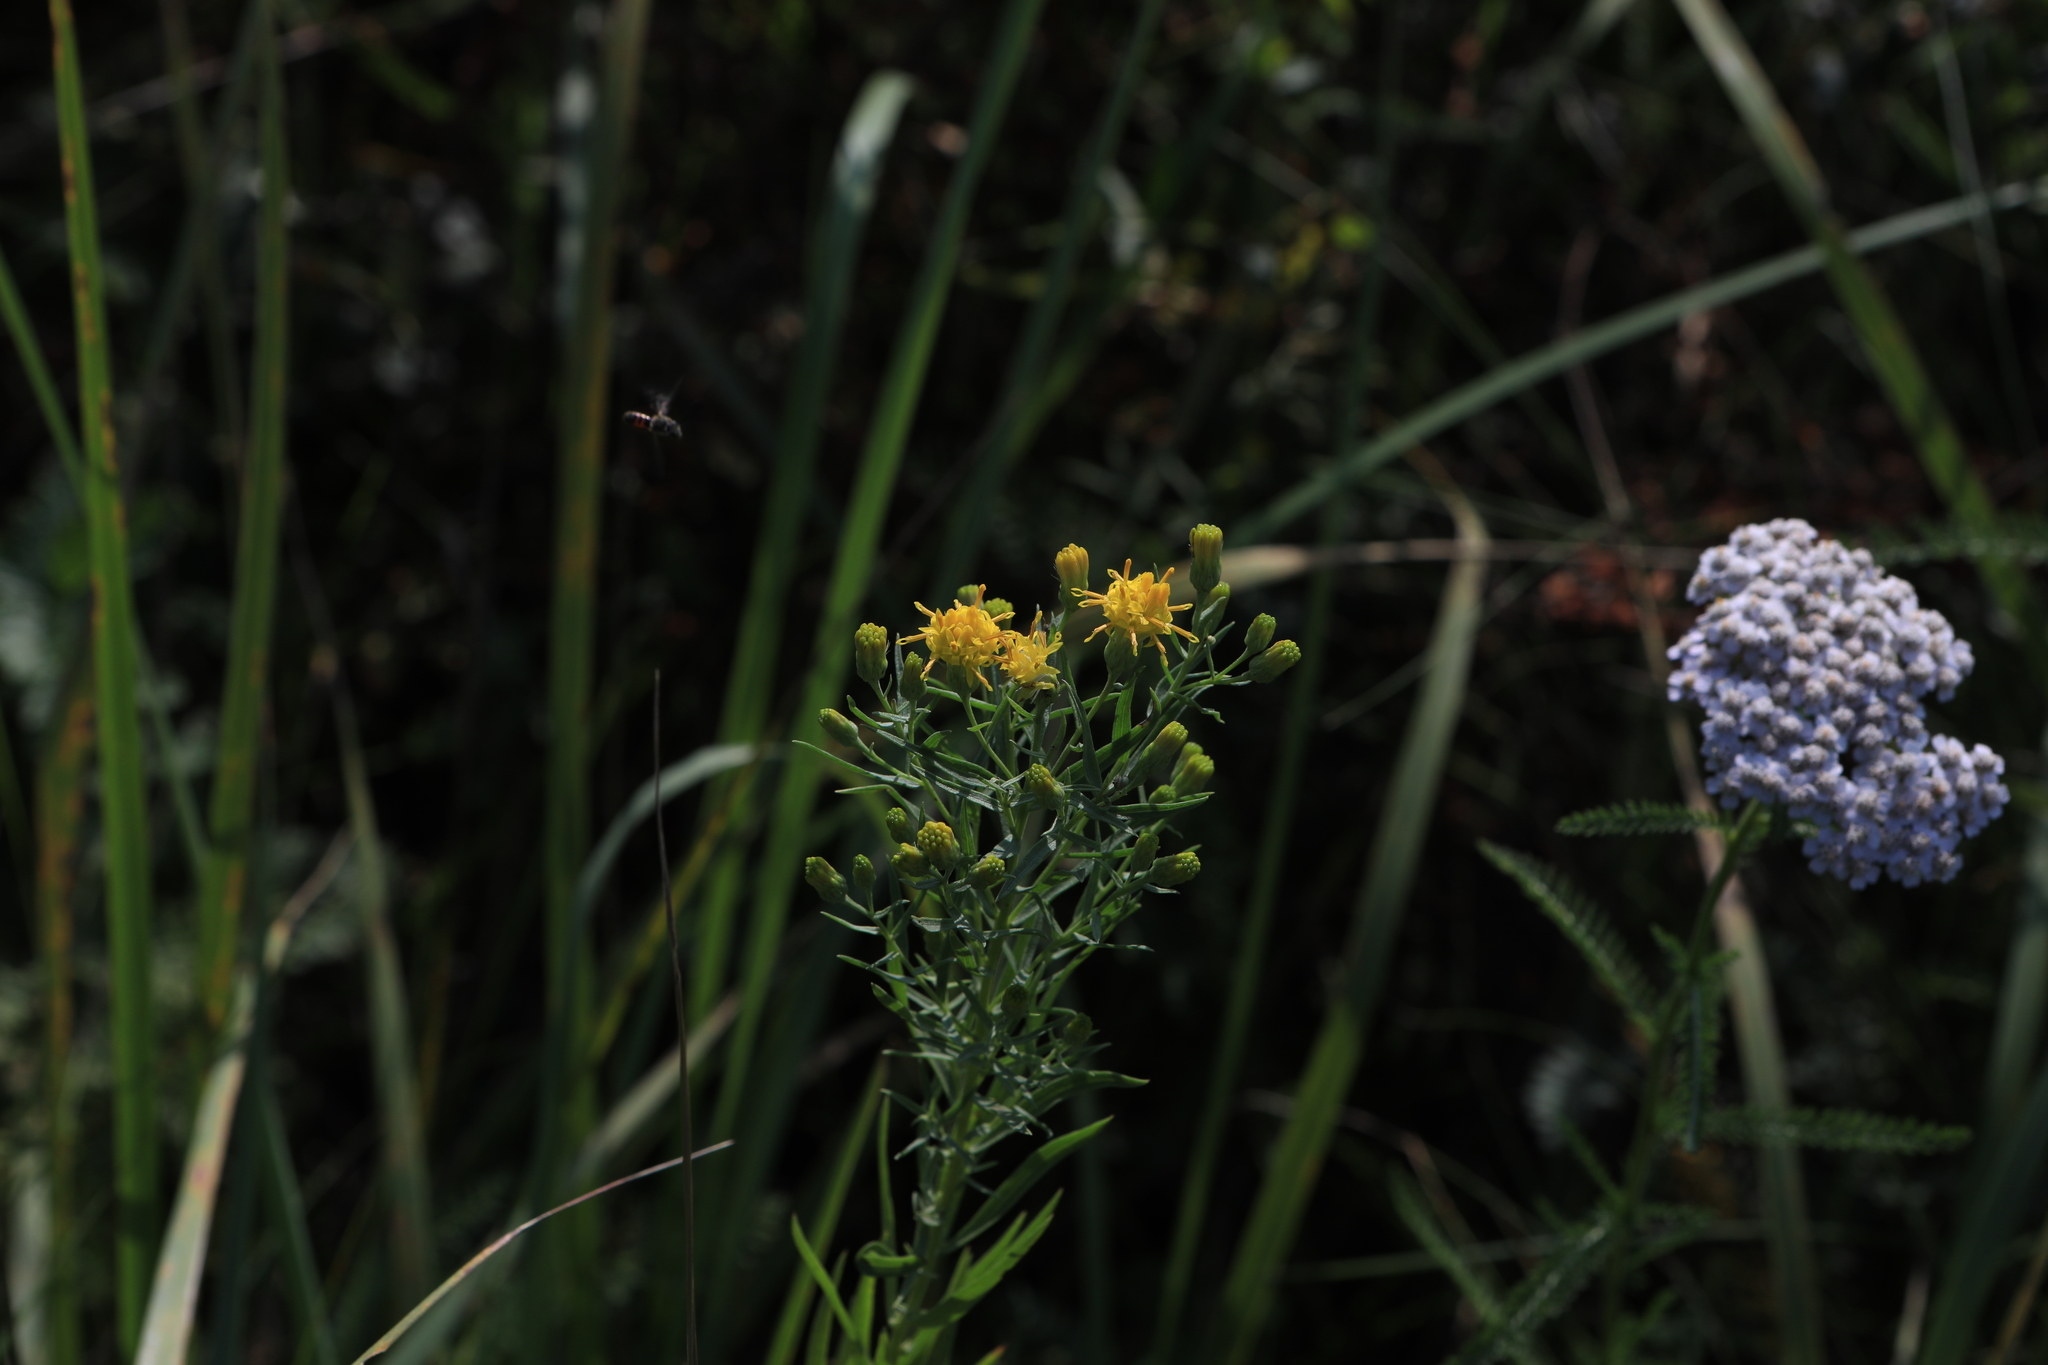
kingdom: Plantae
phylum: Tracheophyta
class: Magnoliopsida
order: Asterales
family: Asteraceae
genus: Galatella
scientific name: Galatella biflora
